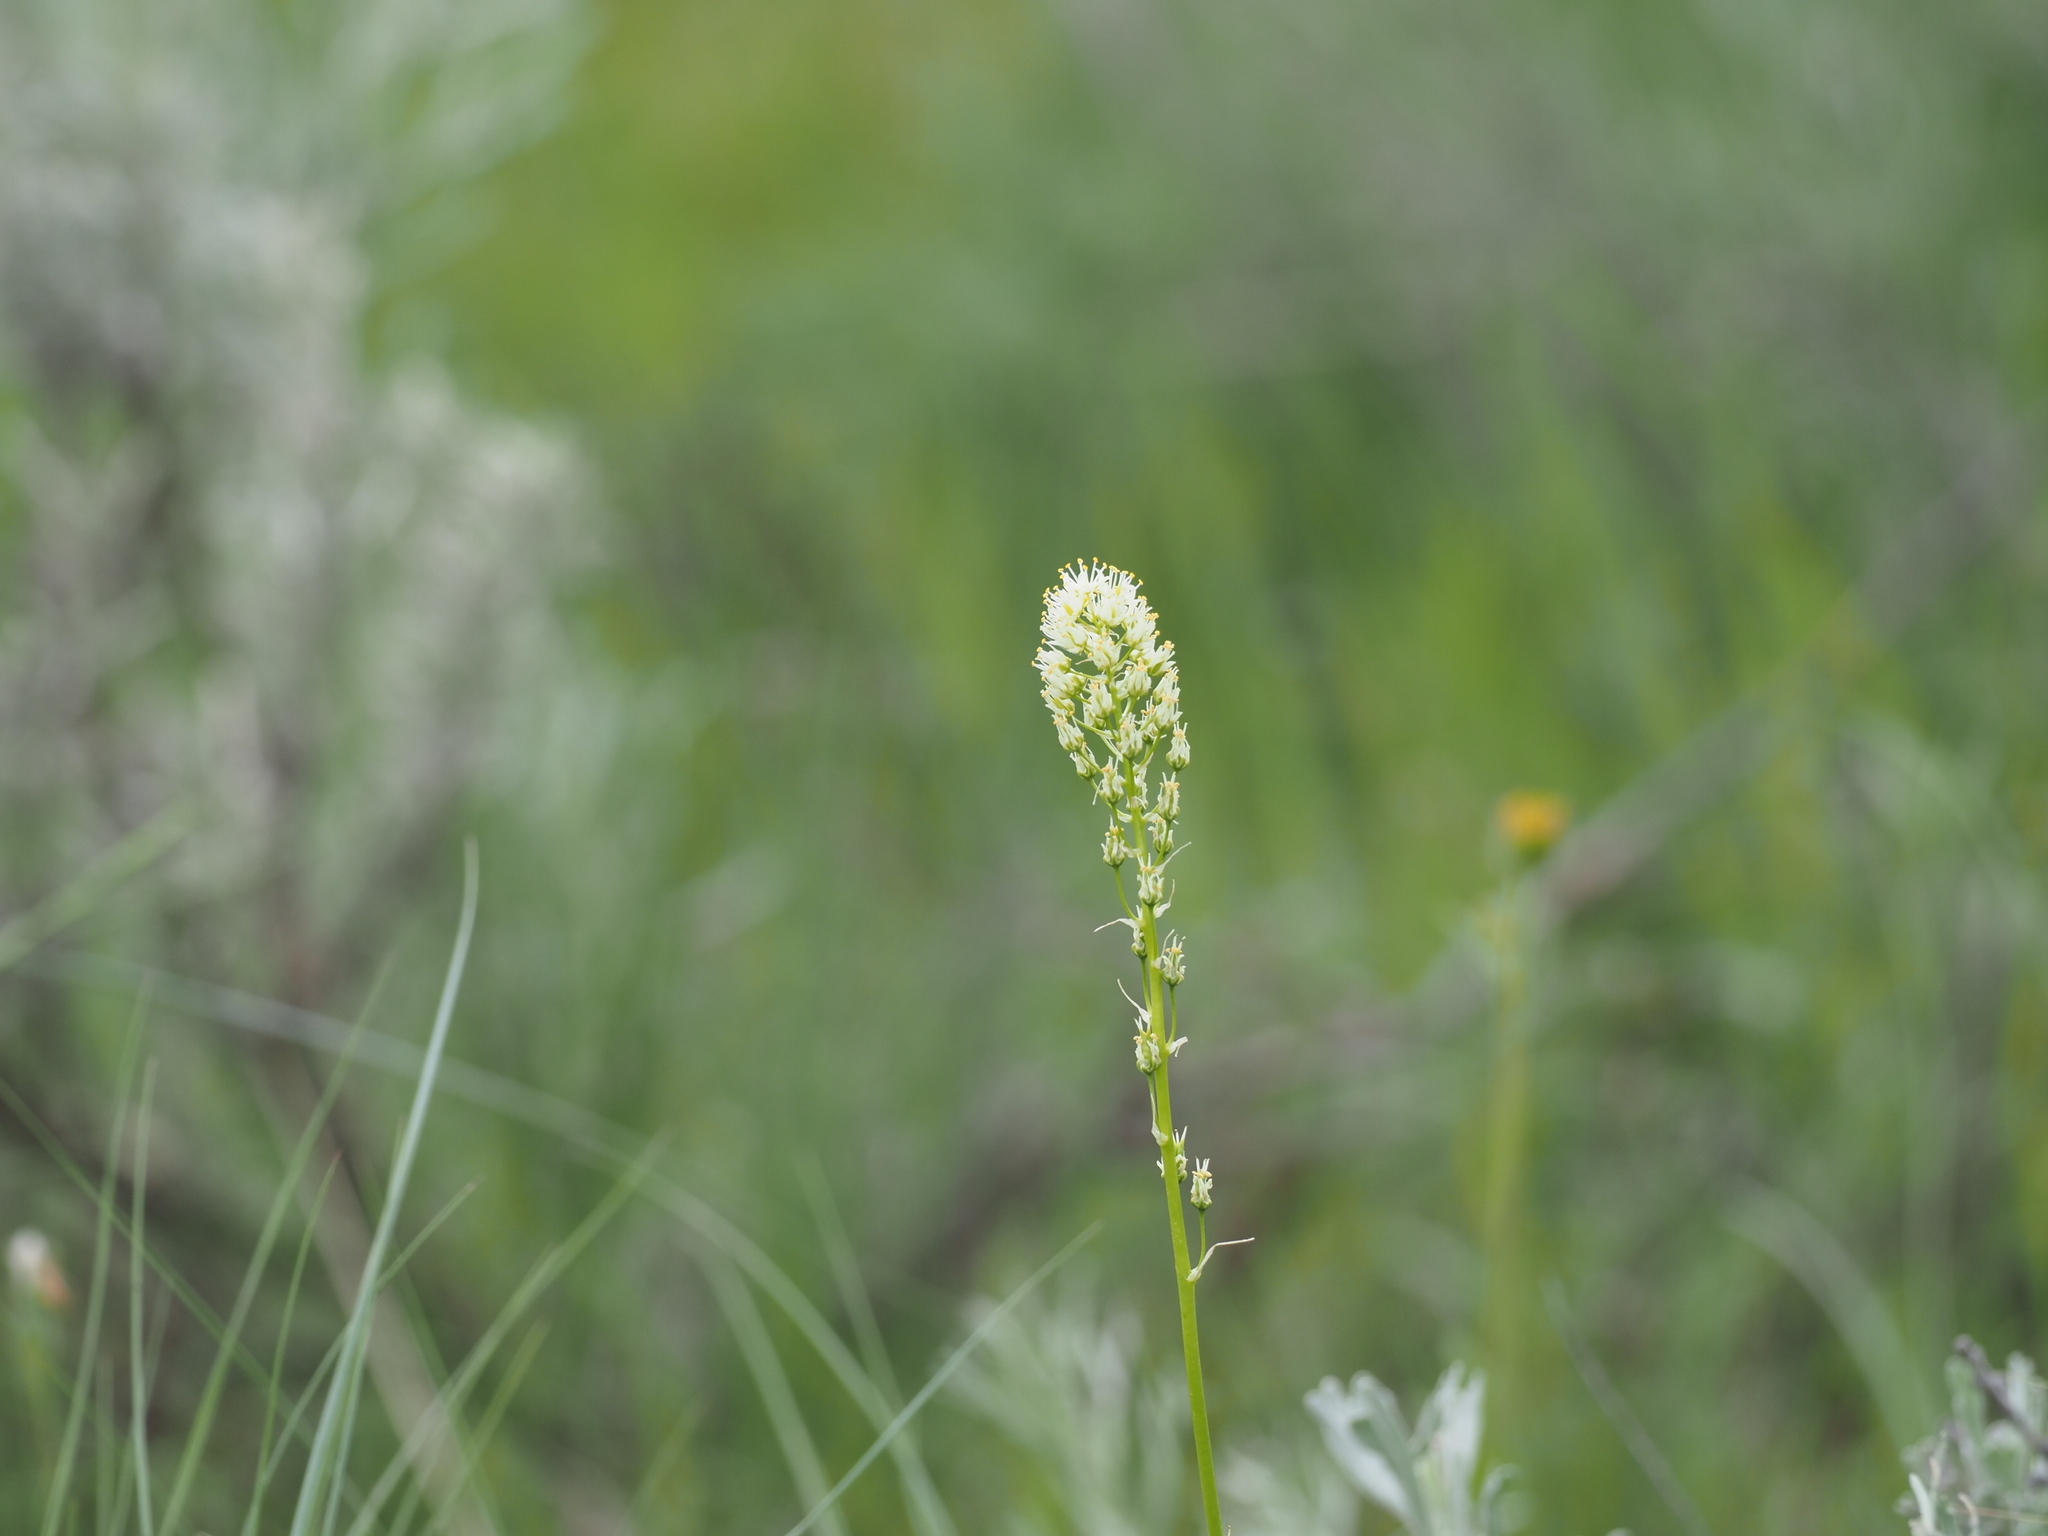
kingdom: Plantae
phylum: Tracheophyta
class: Liliopsida
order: Liliales
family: Melanthiaceae
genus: Toxicoscordion
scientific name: Toxicoscordion venenosum
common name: Meadow death camas
